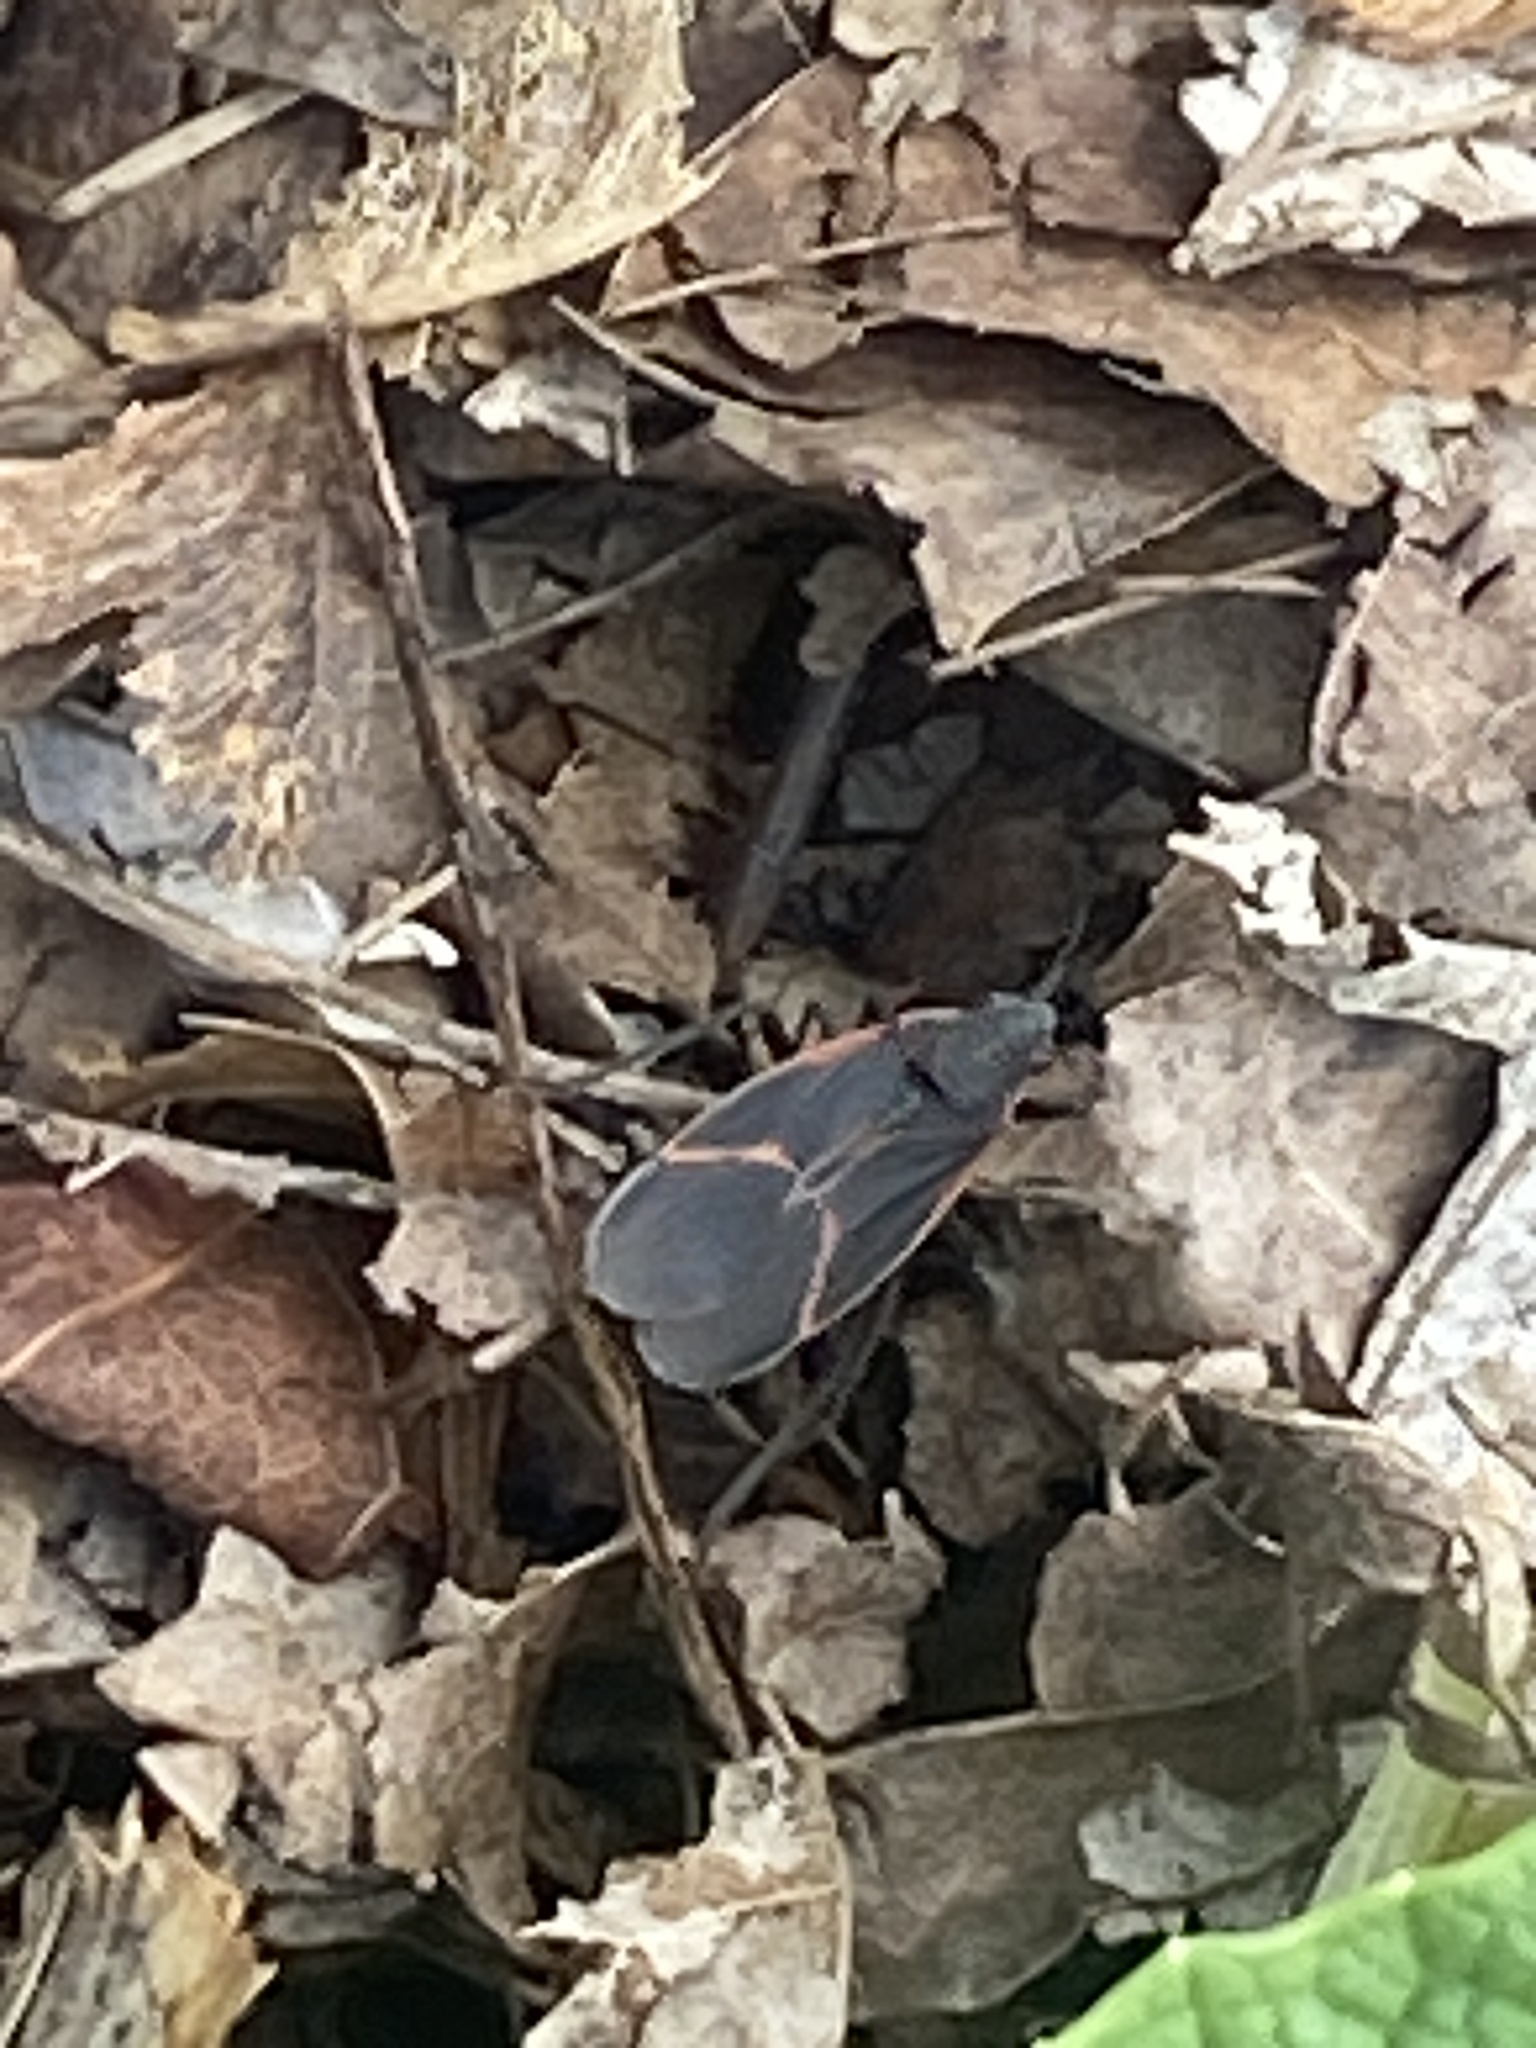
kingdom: Animalia
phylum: Arthropoda
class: Insecta
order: Hemiptera
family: Rhopalidae
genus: Boisea
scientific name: Boisea trivittata
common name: Boxelder bug
